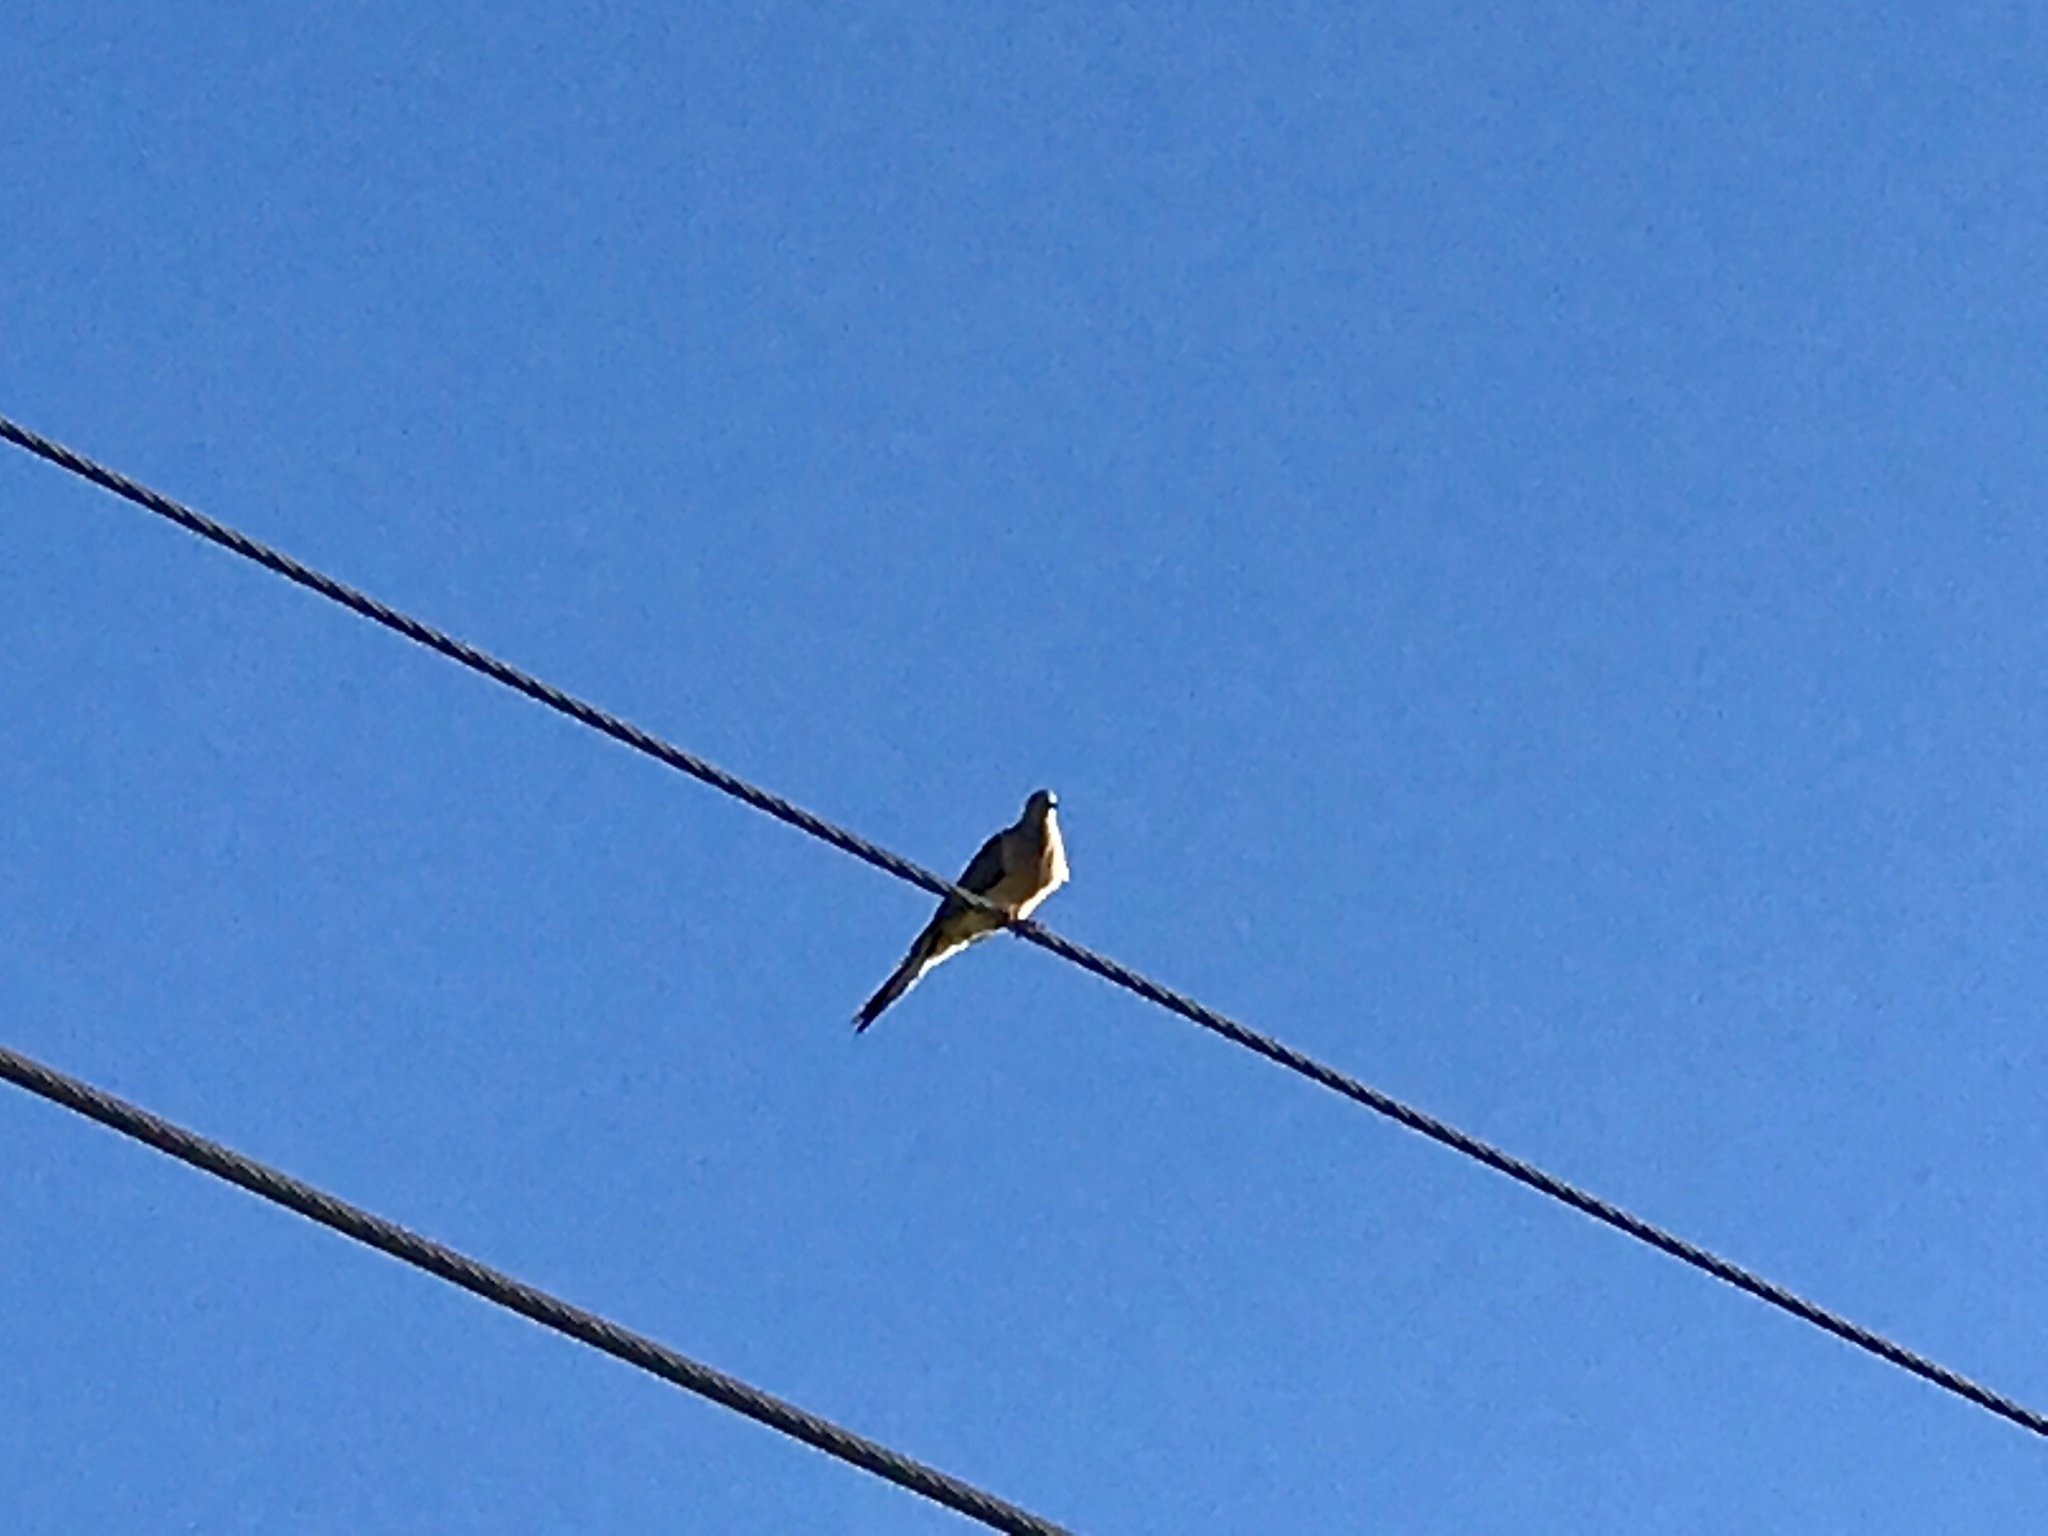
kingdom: Animalia
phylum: Chordata
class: Aves
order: Columbiformes
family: Columbidae
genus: Zenaida
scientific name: Zenaida macroura
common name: Mourning dove
